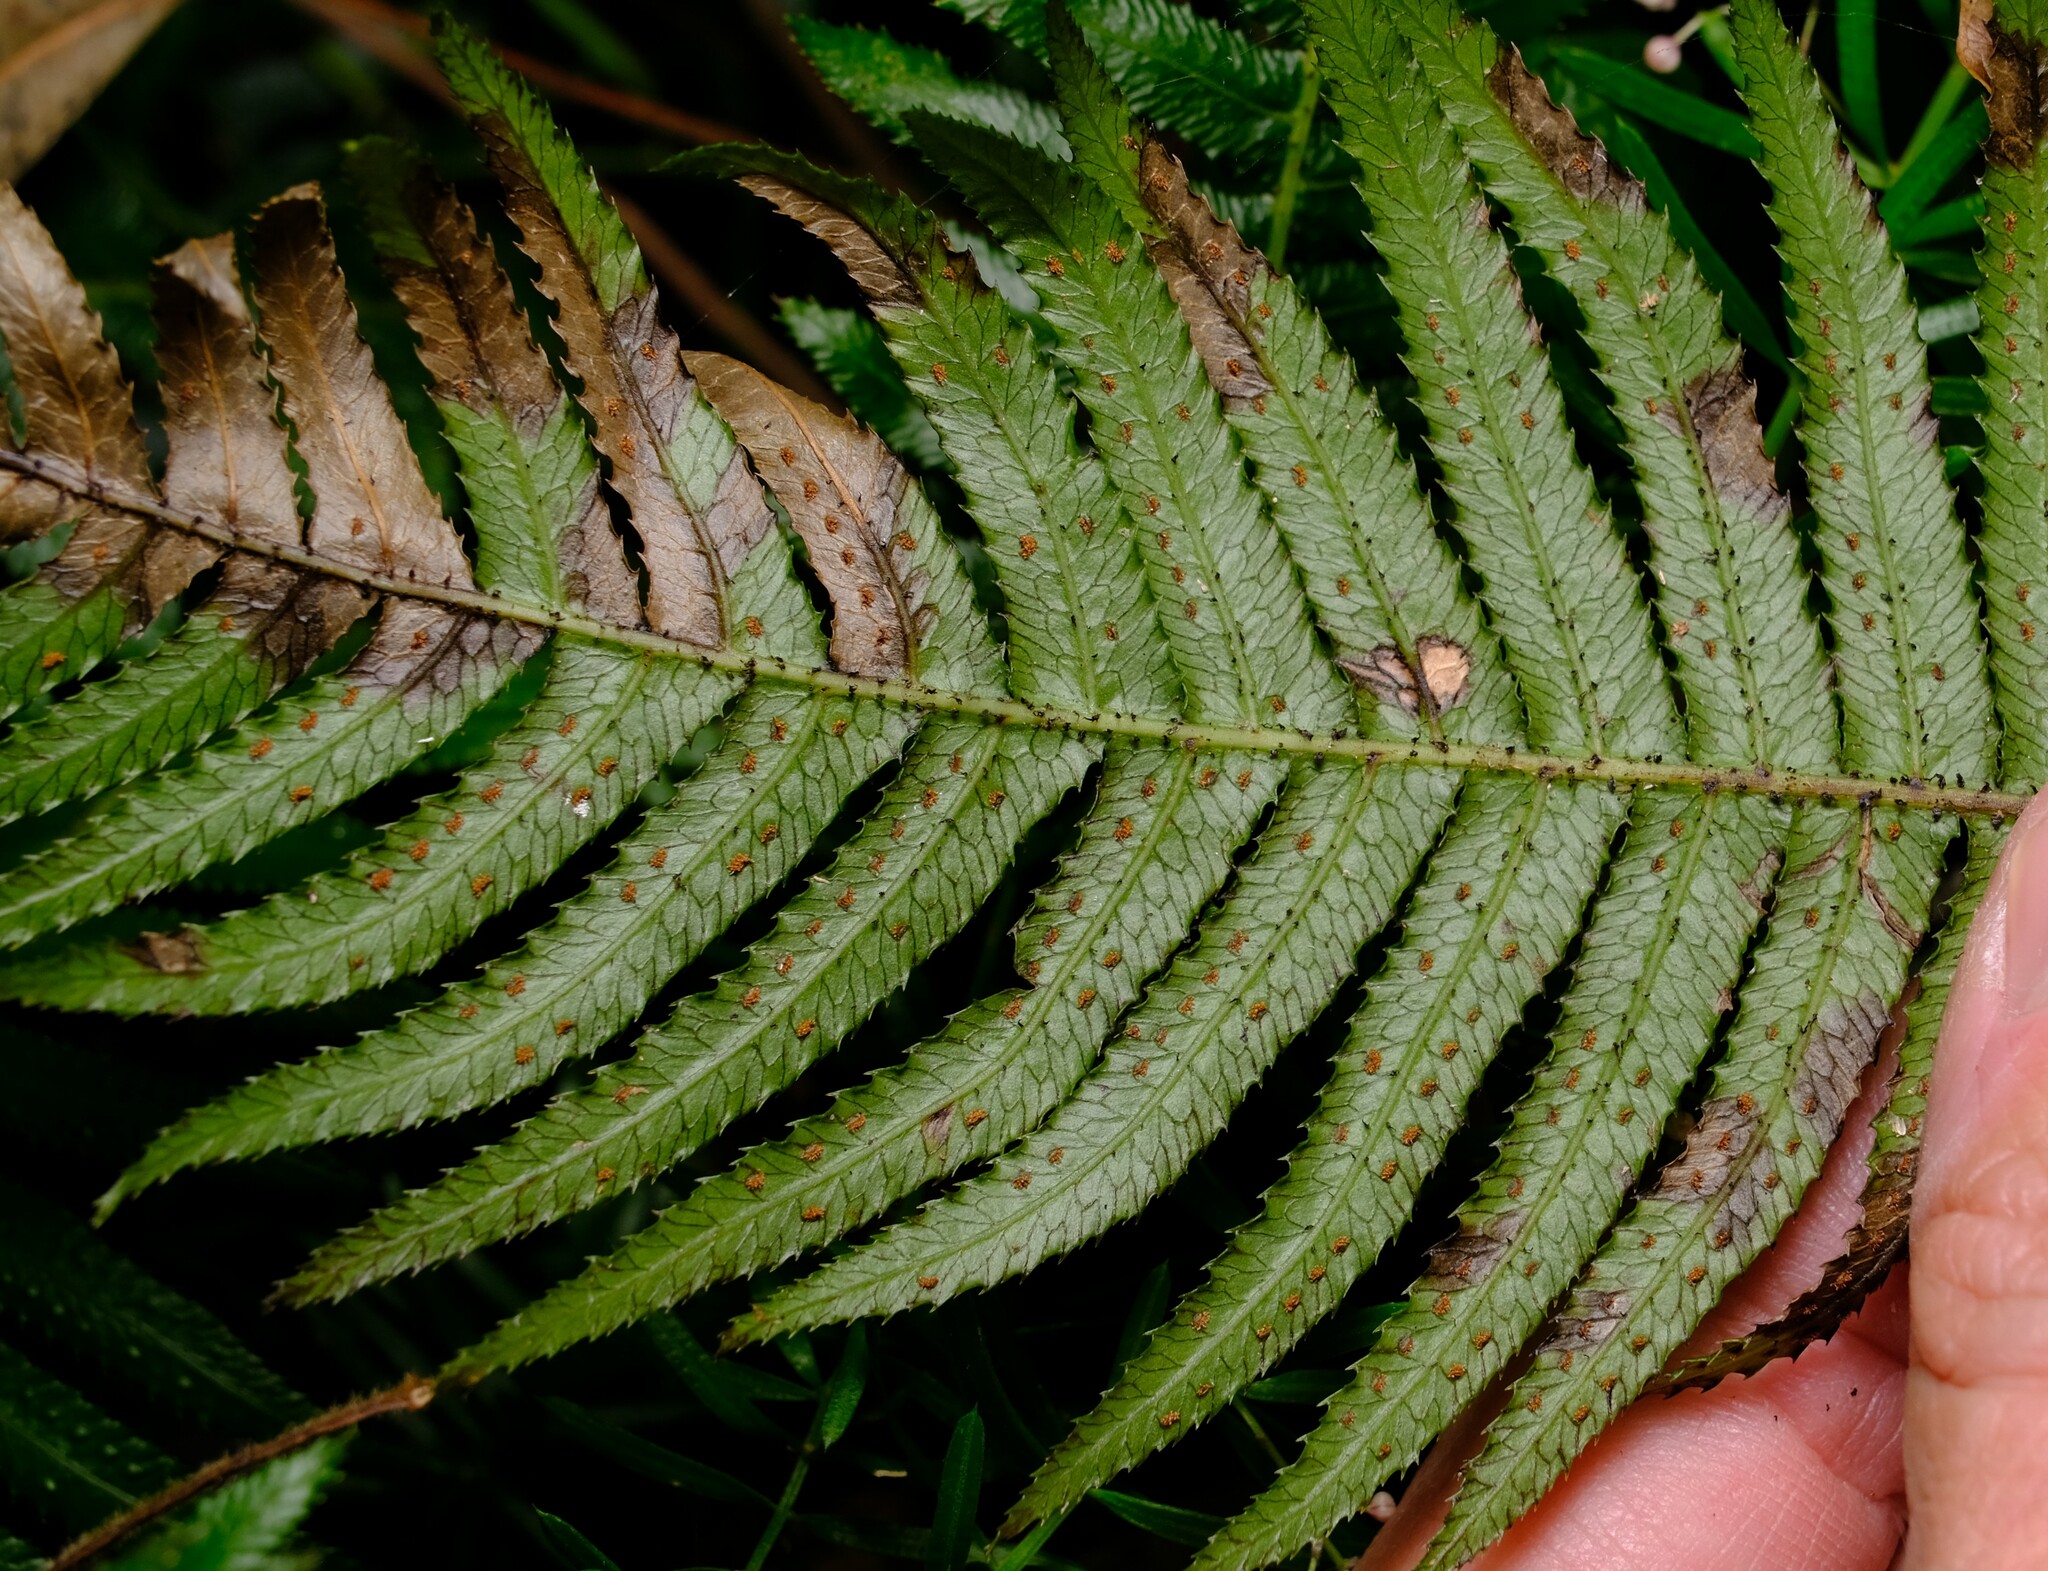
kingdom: Plantae
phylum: Tracheophyta
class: Polypodiopsida
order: Polypodiales
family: Blechnaceae
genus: Doodia
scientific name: Doodia aspera
